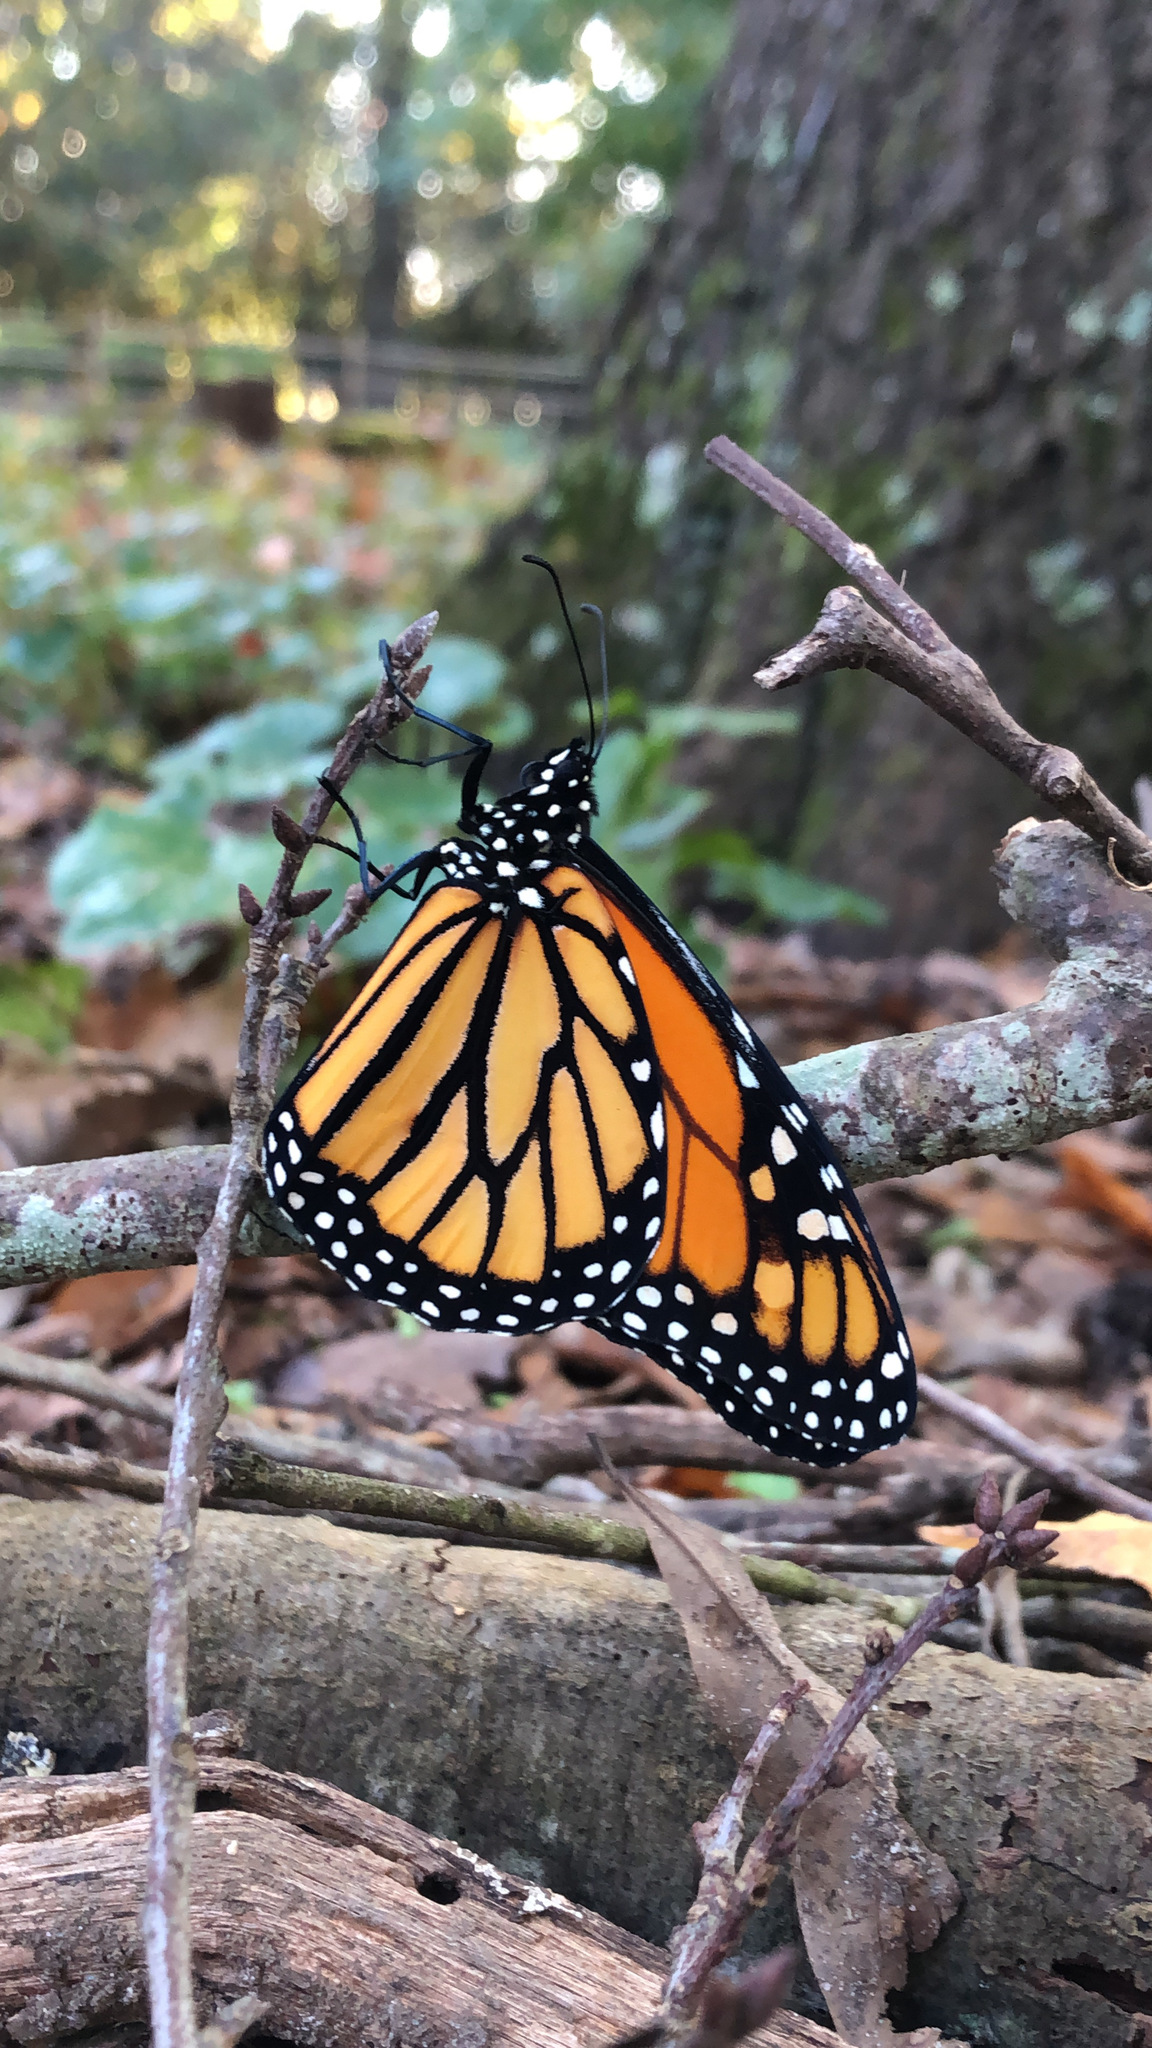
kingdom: Animalia
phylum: Arthropoda
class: Insecta
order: Lepidoptera
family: Nymphalidae
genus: Danaus
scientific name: Danaus plexippus
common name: Monarch
